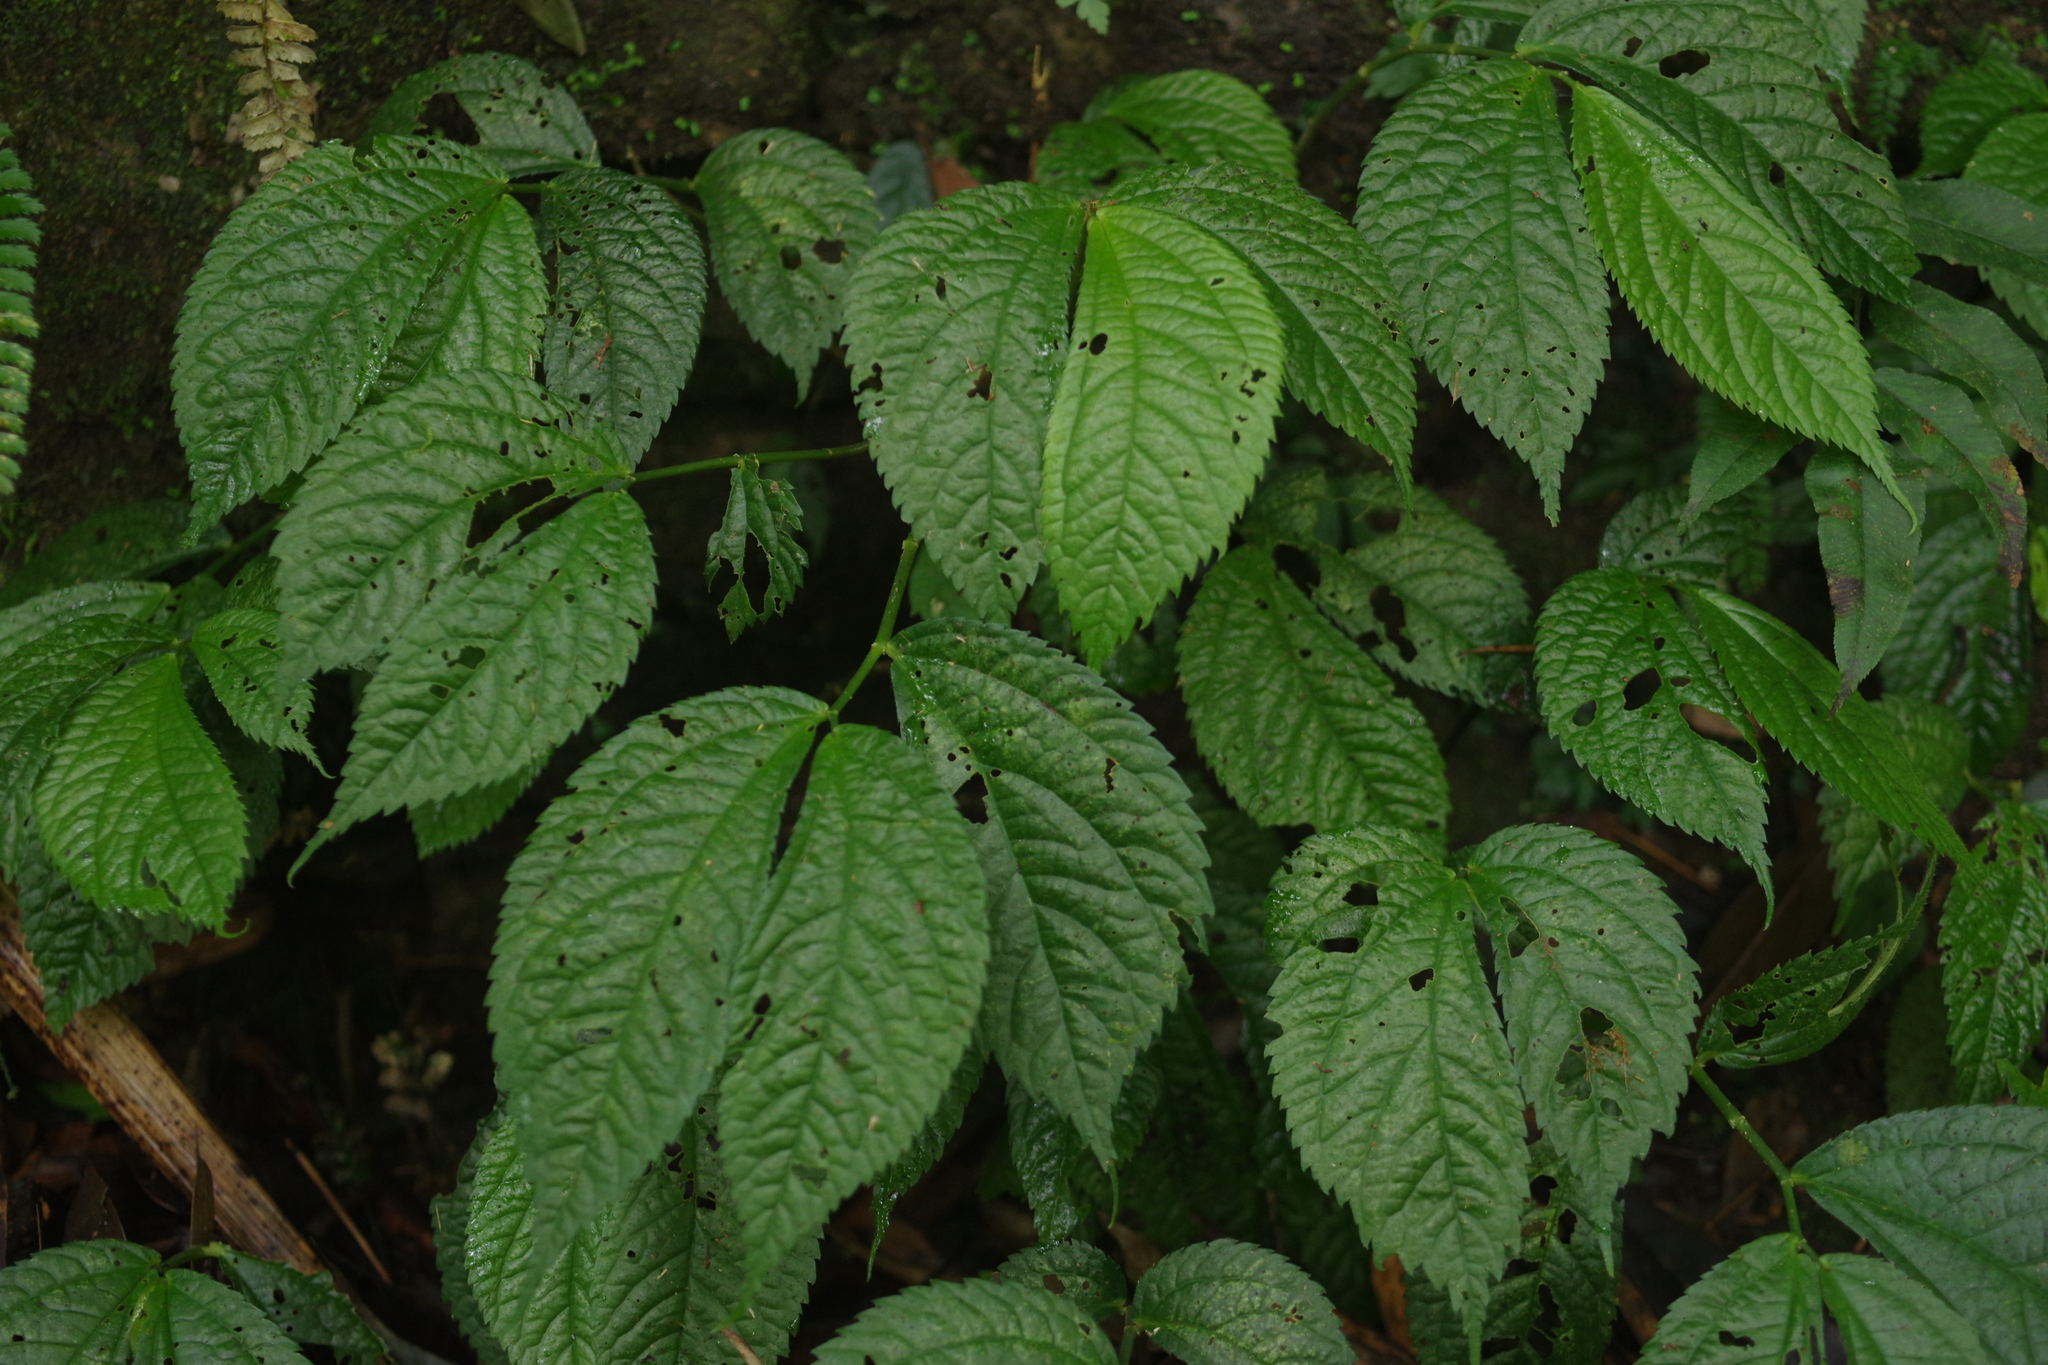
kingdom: Plantae
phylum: Tracheophyta
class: Magnoliopsida
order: Rosales
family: Urticaceae
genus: Elatostema
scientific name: Elatostema rivulare
